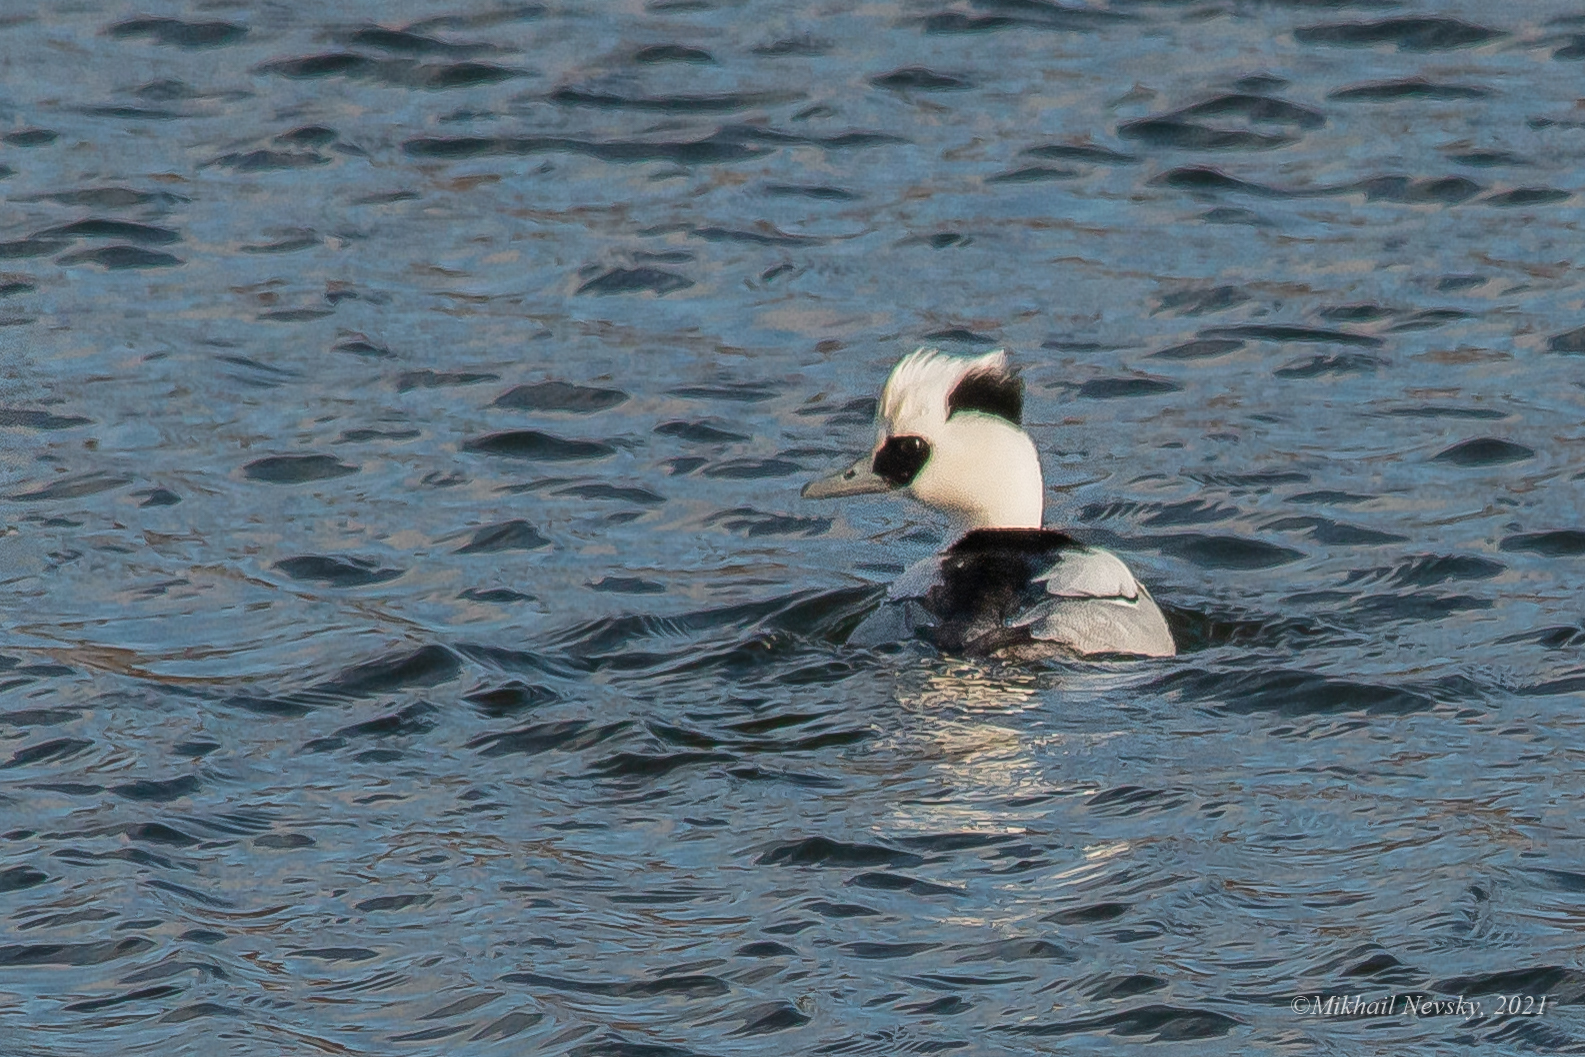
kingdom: Animalia
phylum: Chordata
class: Aves
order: Anseriformes
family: Anatidae
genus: Mergellus
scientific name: Mergellus albellus
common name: Smew
